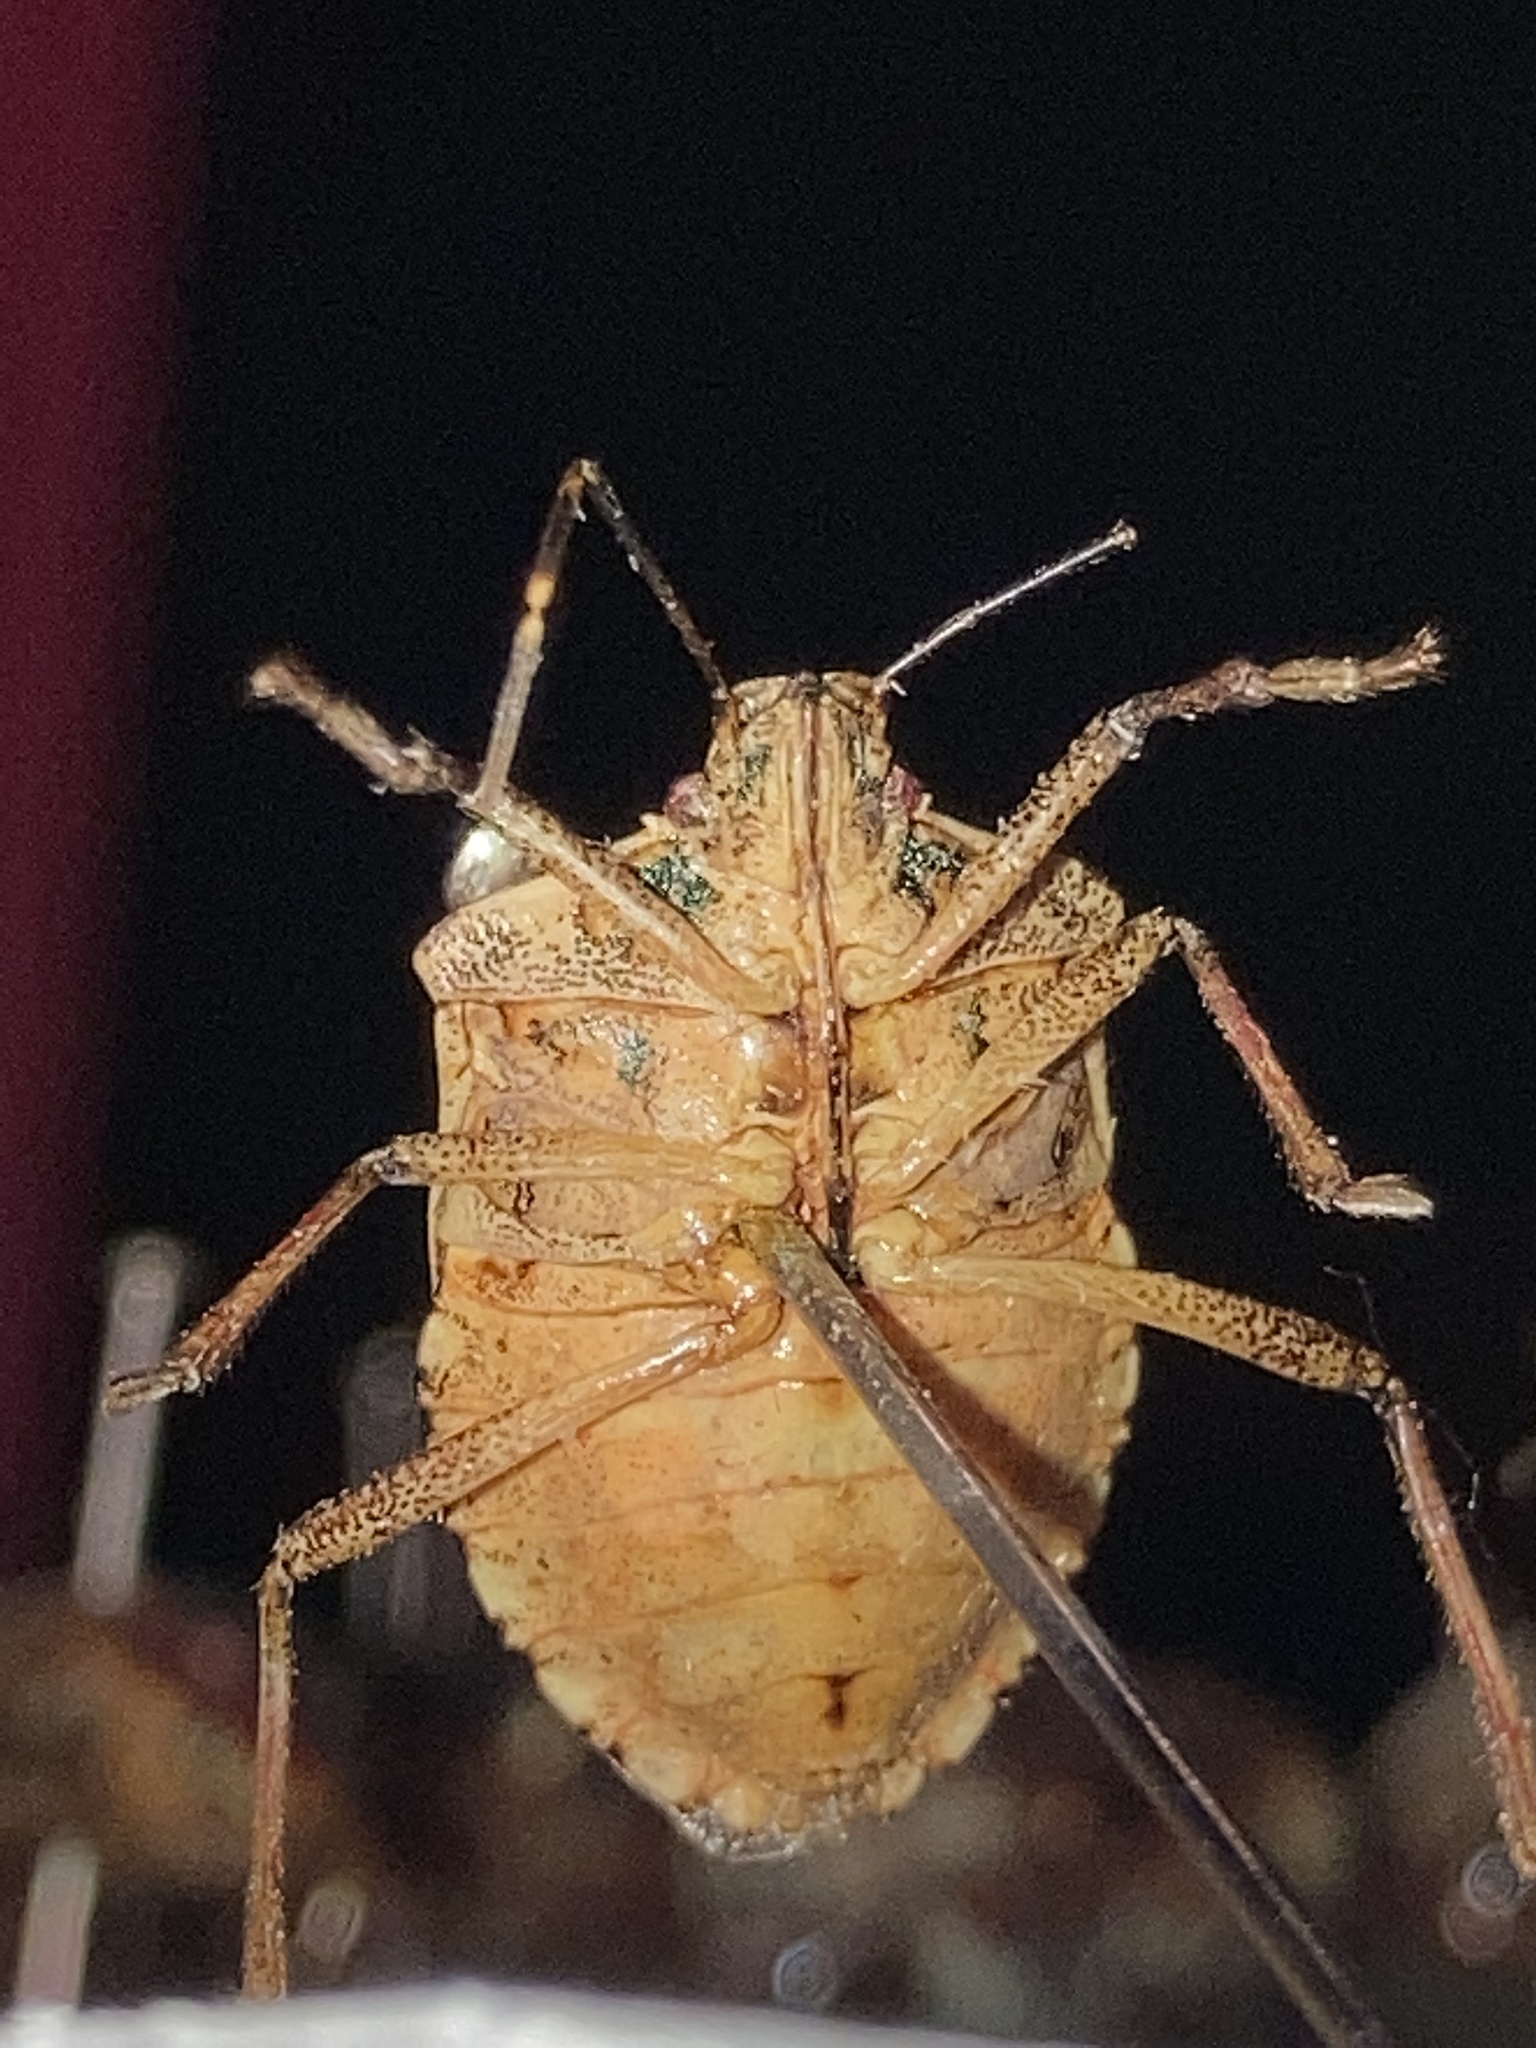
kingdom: Animalia
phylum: Arthropoda
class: Insecta
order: Hemiptera
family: Pentatomidae
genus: Halyomorpha
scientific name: Halyomorpha halys
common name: Brown marmorated stink bug
